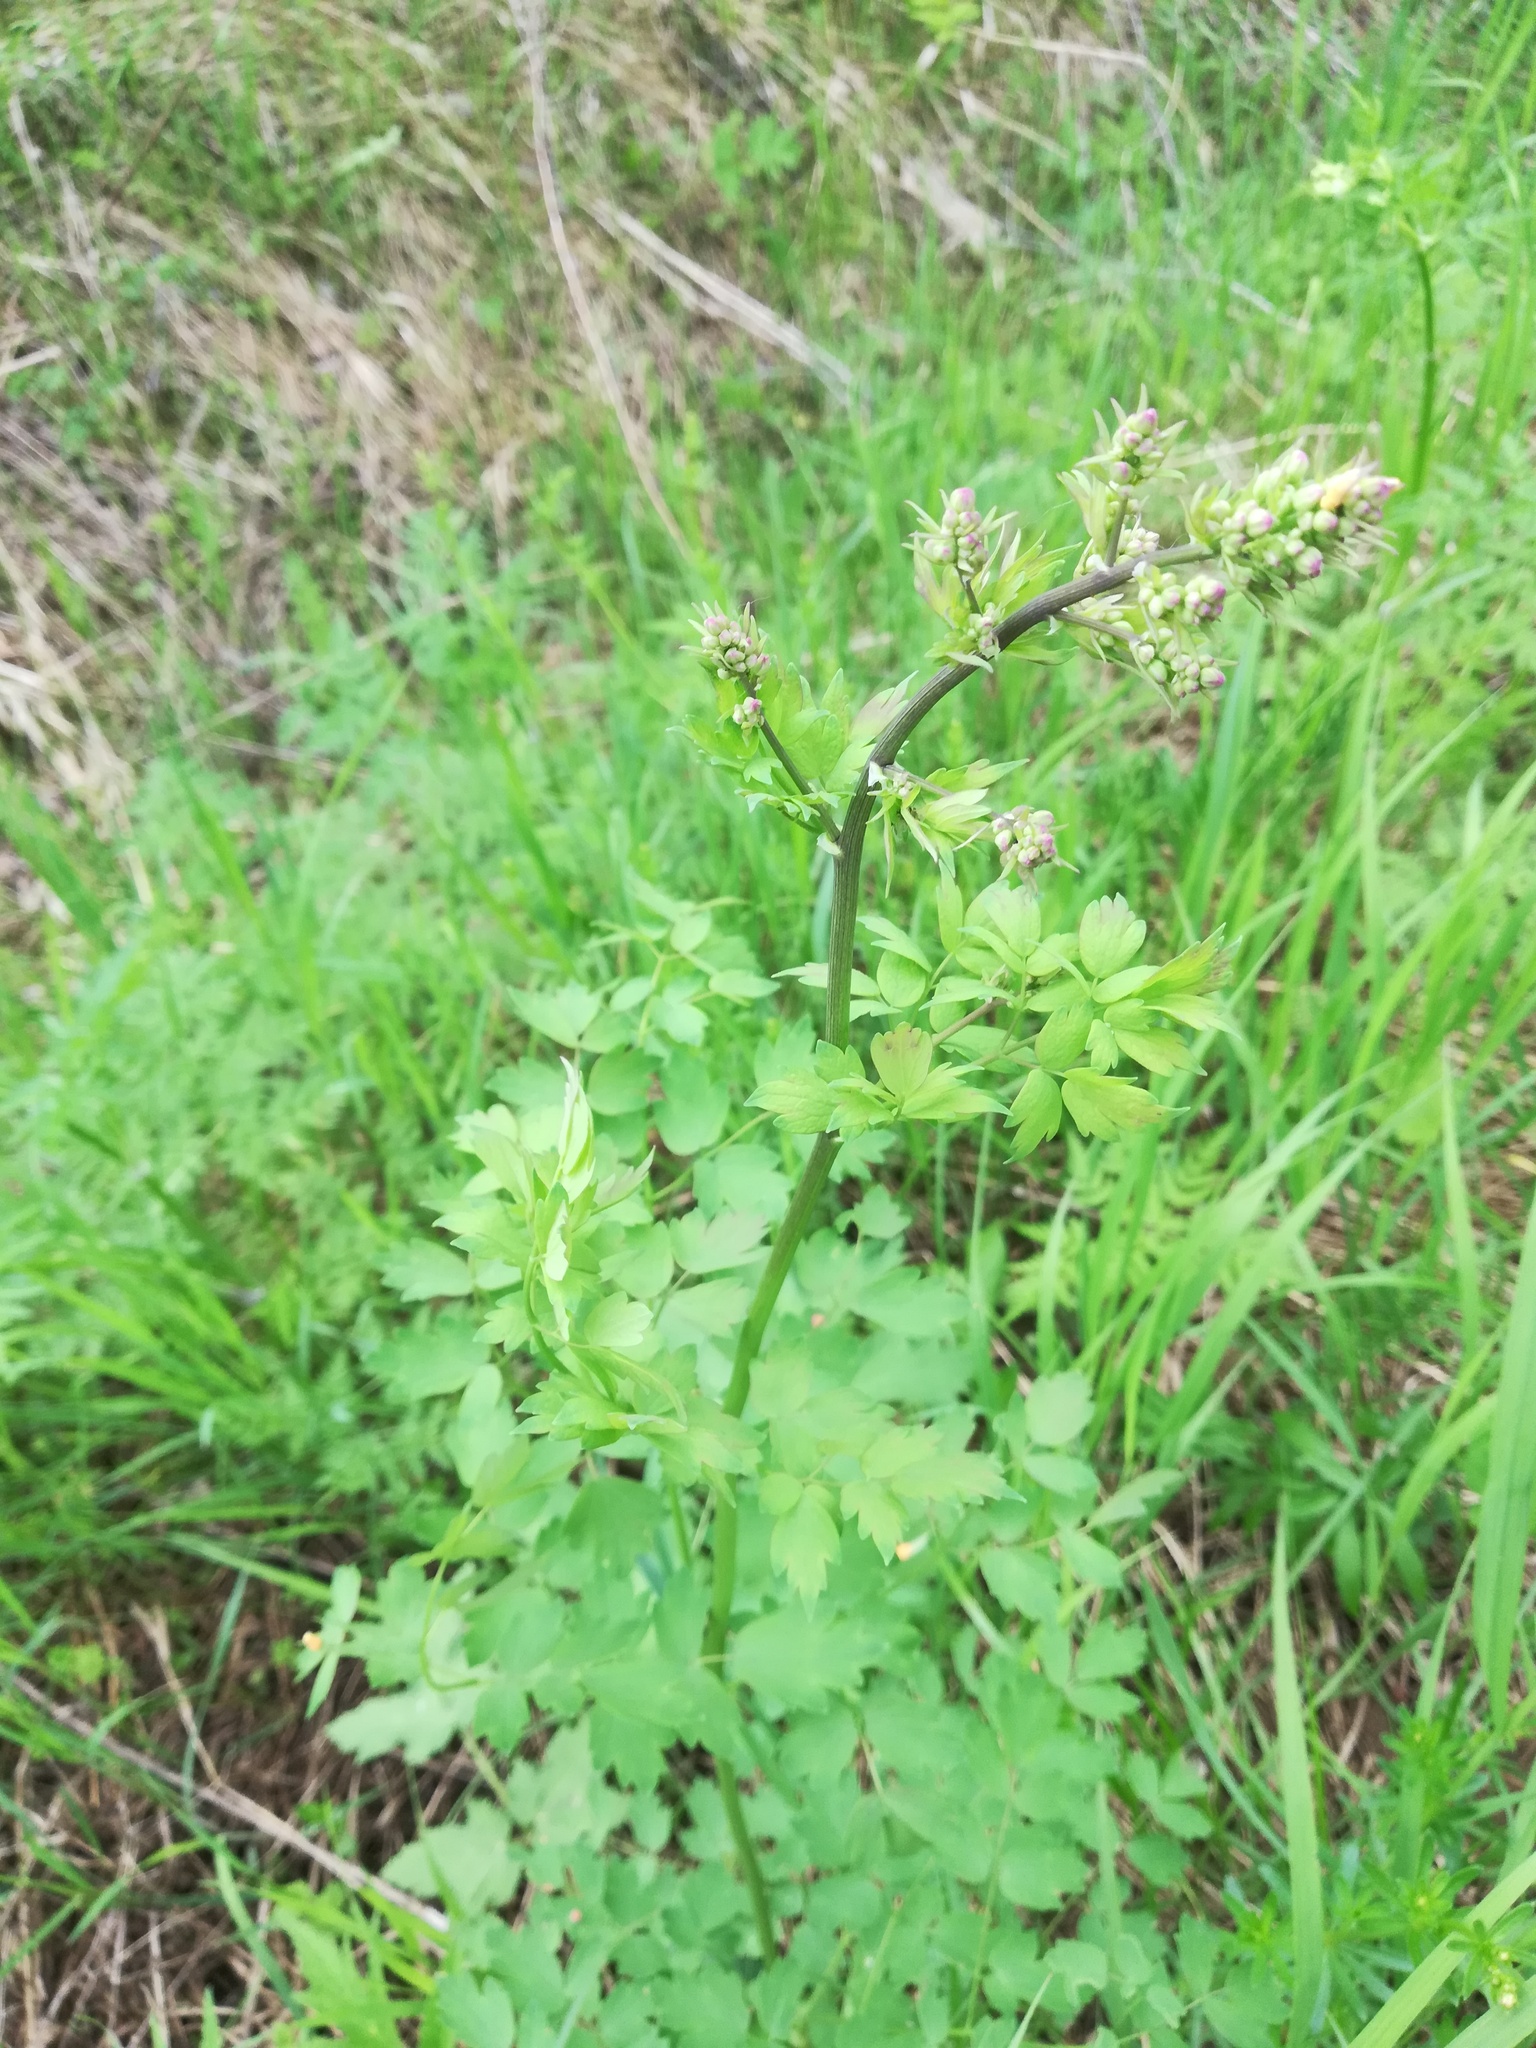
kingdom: Plantae
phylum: Tracheophyta
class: Magnoliopsida
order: Ranunculales
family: Ranunculaceae
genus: Thalictrum
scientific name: Thalictrum minus
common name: Lesser meadow-rue
